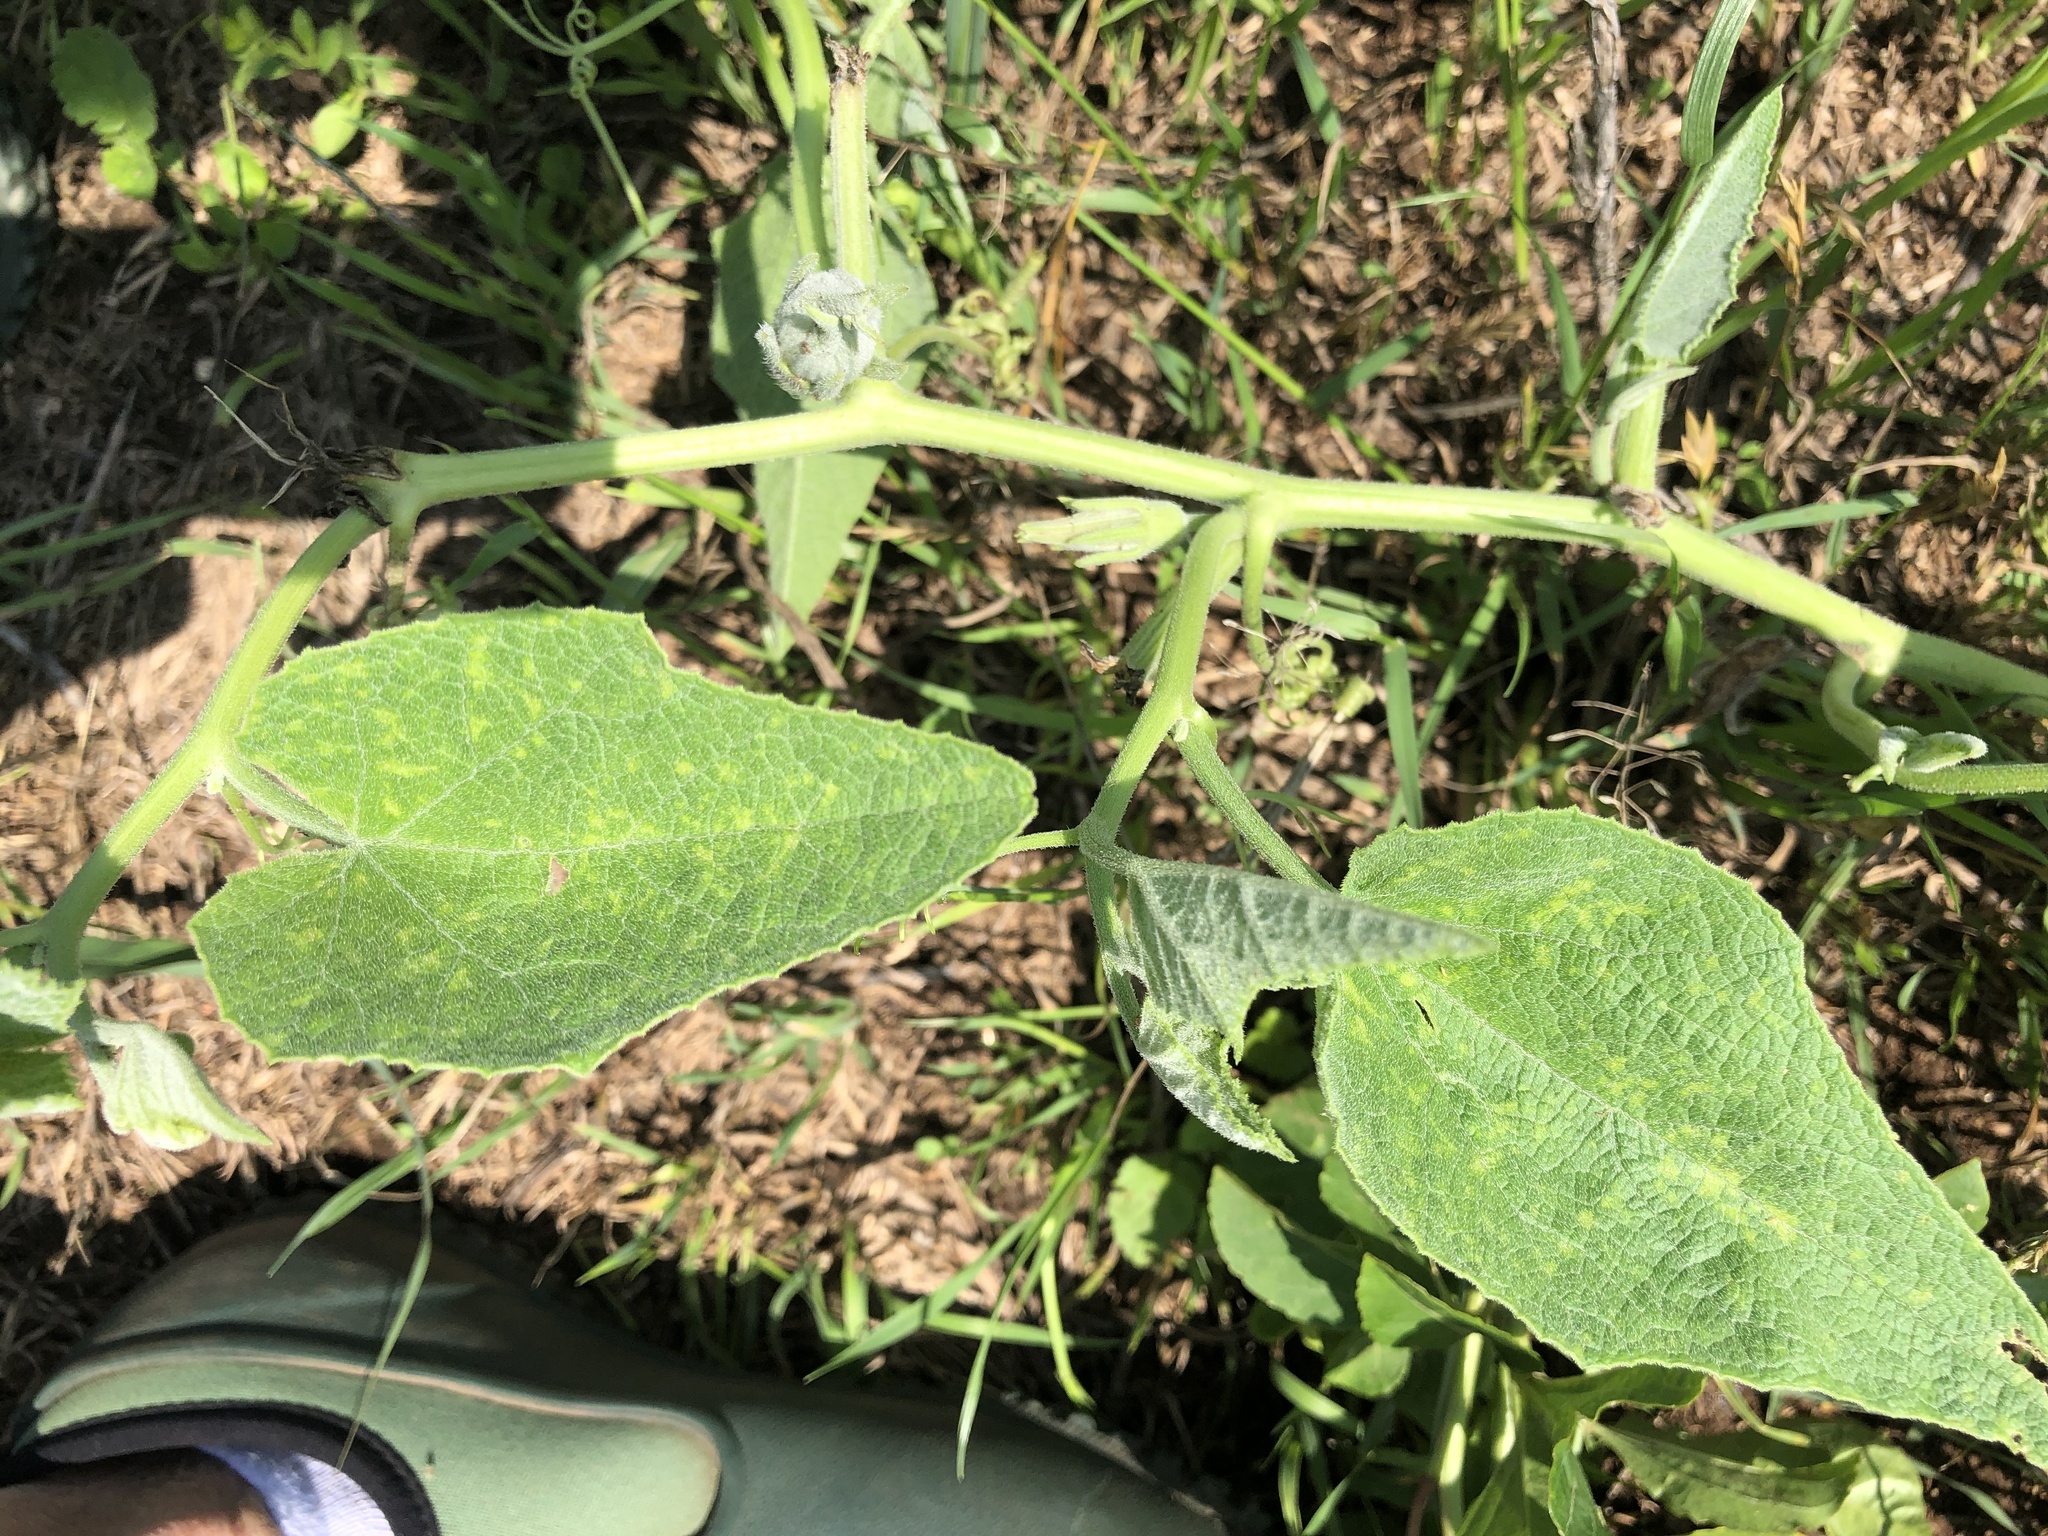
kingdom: Plantae
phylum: Tracheophyta
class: Magnoliopsida
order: Cucurbitales
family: Cucurbitaceae
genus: Cucurbita
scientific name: Cucurbita foetidissima
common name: Buffalo gourd
